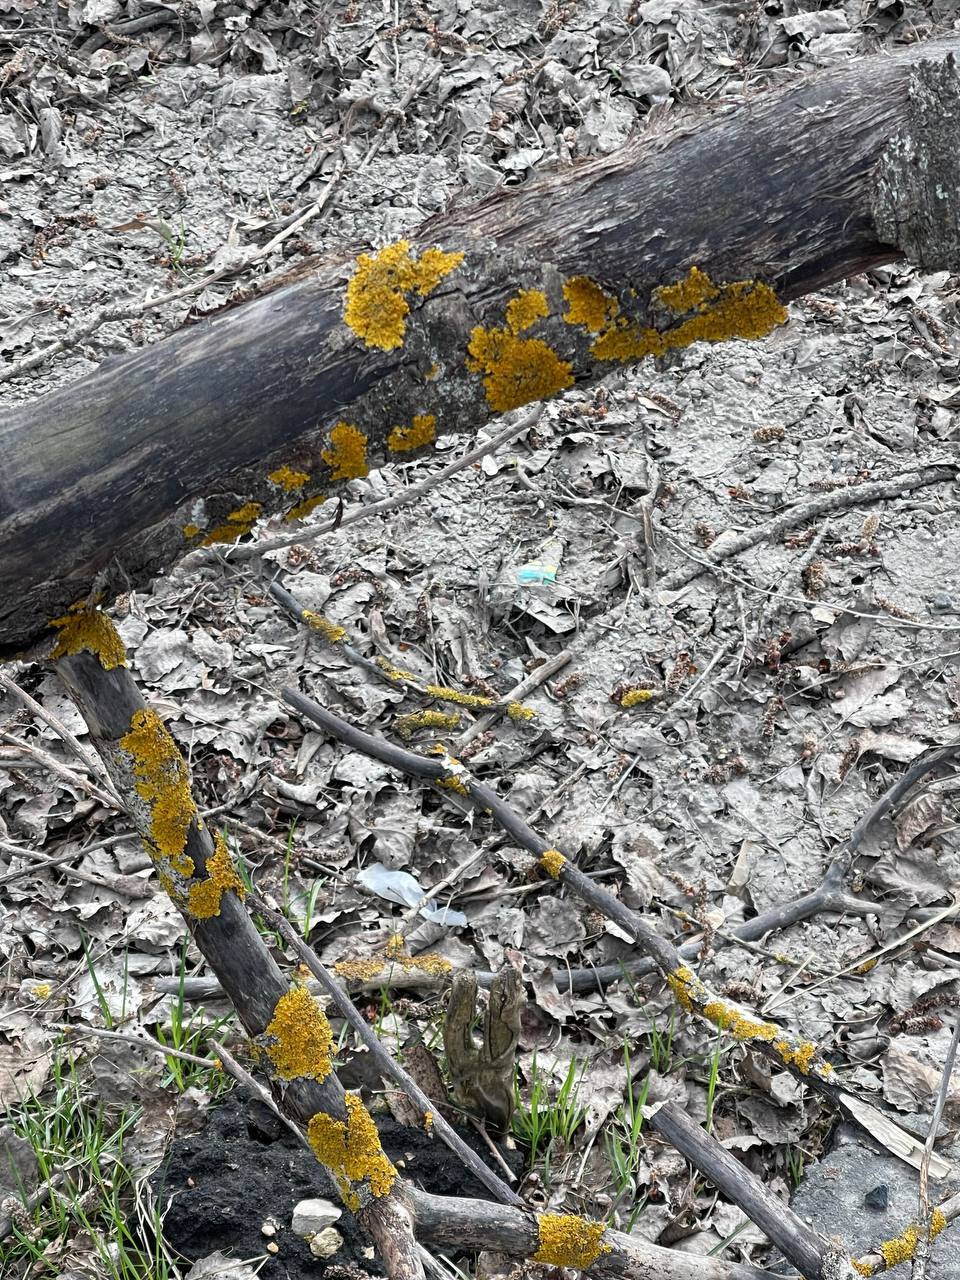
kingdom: Fungi
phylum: Ascomycota
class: Lecanoromycetes
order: Teloschistales
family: Teloschistaceae
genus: Xanthoria
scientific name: Xanthoria parietina
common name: Common orange lichen
